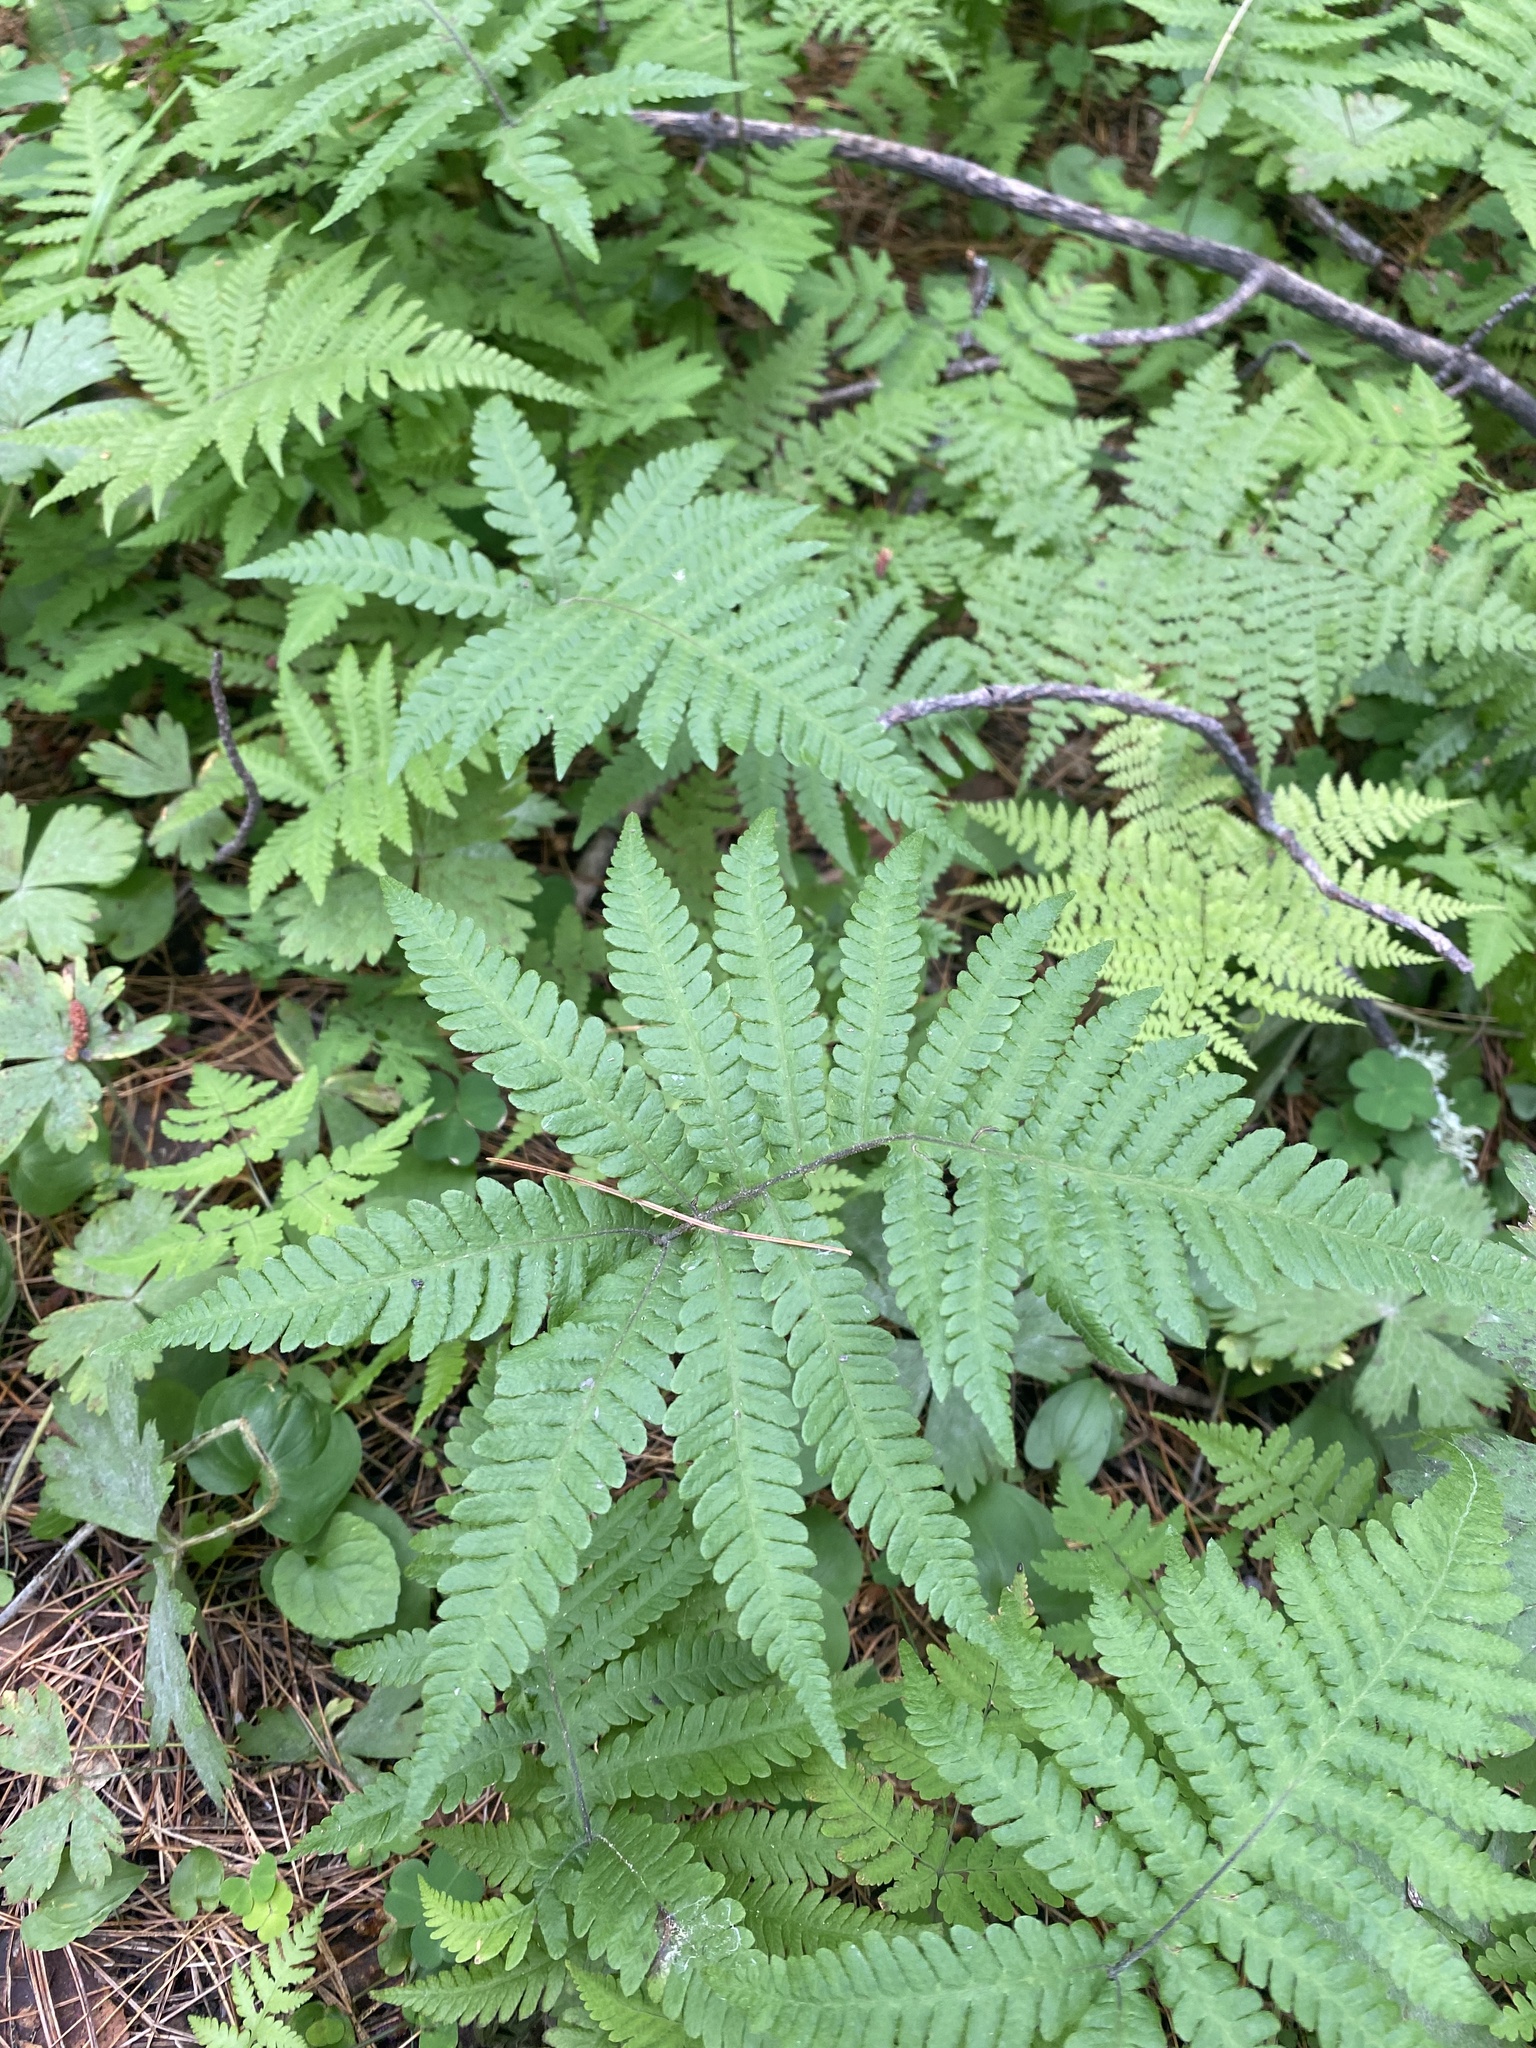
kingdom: Plantae
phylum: Tracheophyta
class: Polypodiopsida
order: Polypodiales
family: Thelypteridaceae
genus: Phegopteris
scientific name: Phegopteris connectilis
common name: Beech fern
